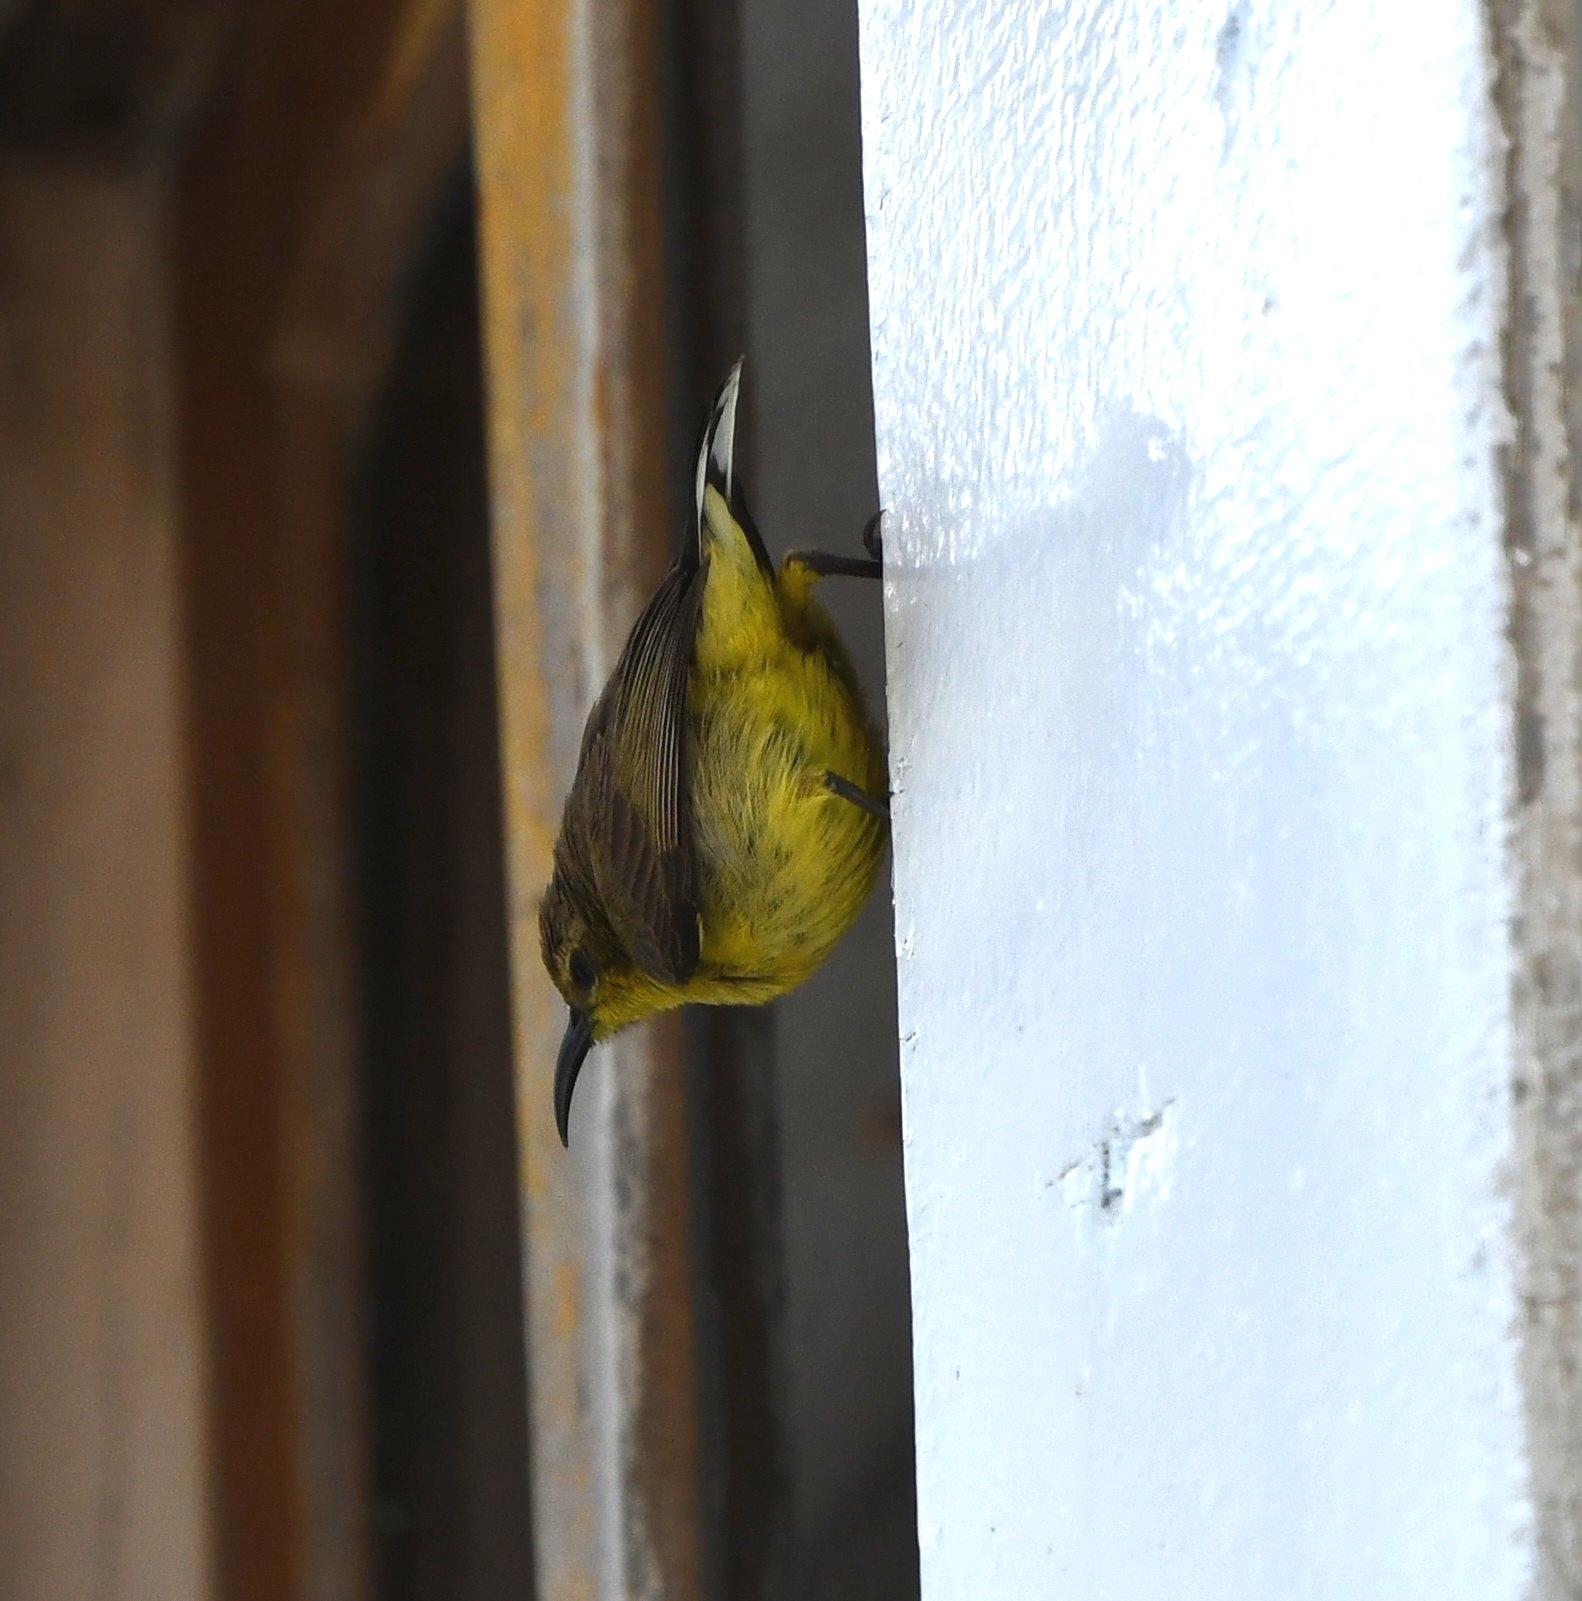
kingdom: Animalia
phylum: Chordata
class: Aves
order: Passeriformes
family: Nectariniidae
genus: Cinnyris
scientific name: Cinnyris
